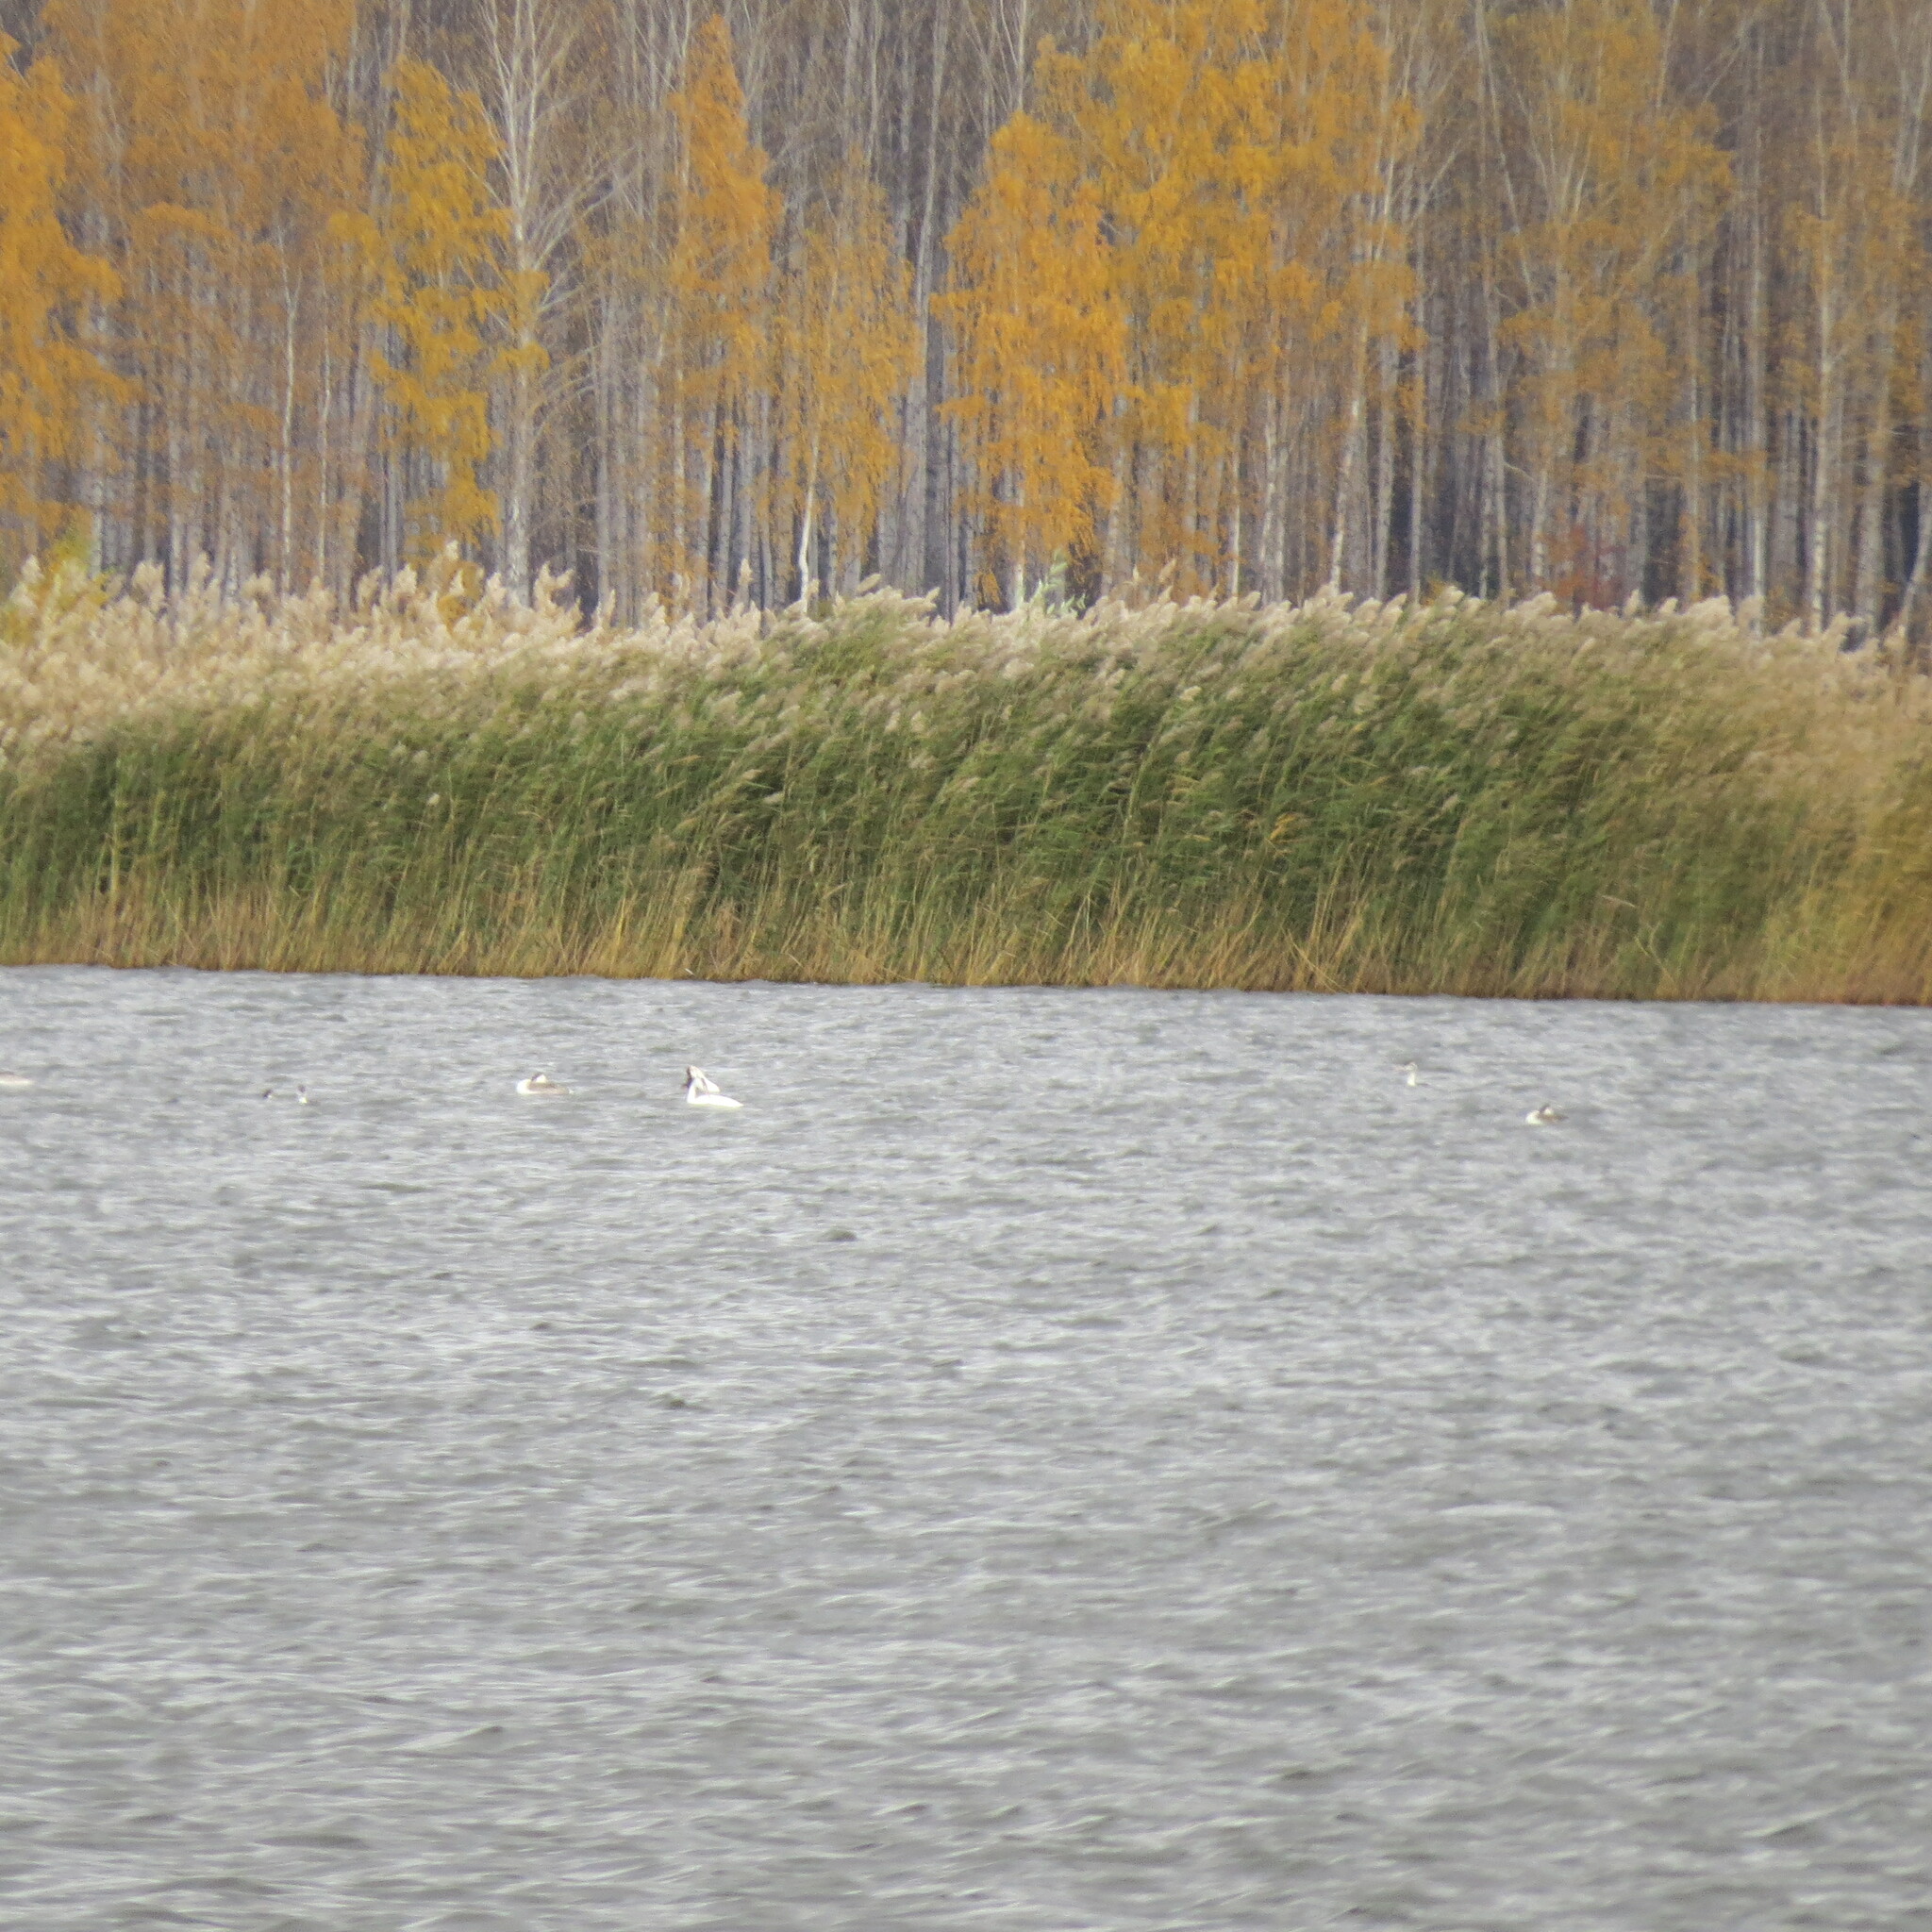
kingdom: Animalia
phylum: Chordata
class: Aves
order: Podicipediformes
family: Podicipedidae
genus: Podiceps
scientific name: Podiceps cristatus
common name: Great crested grebe
